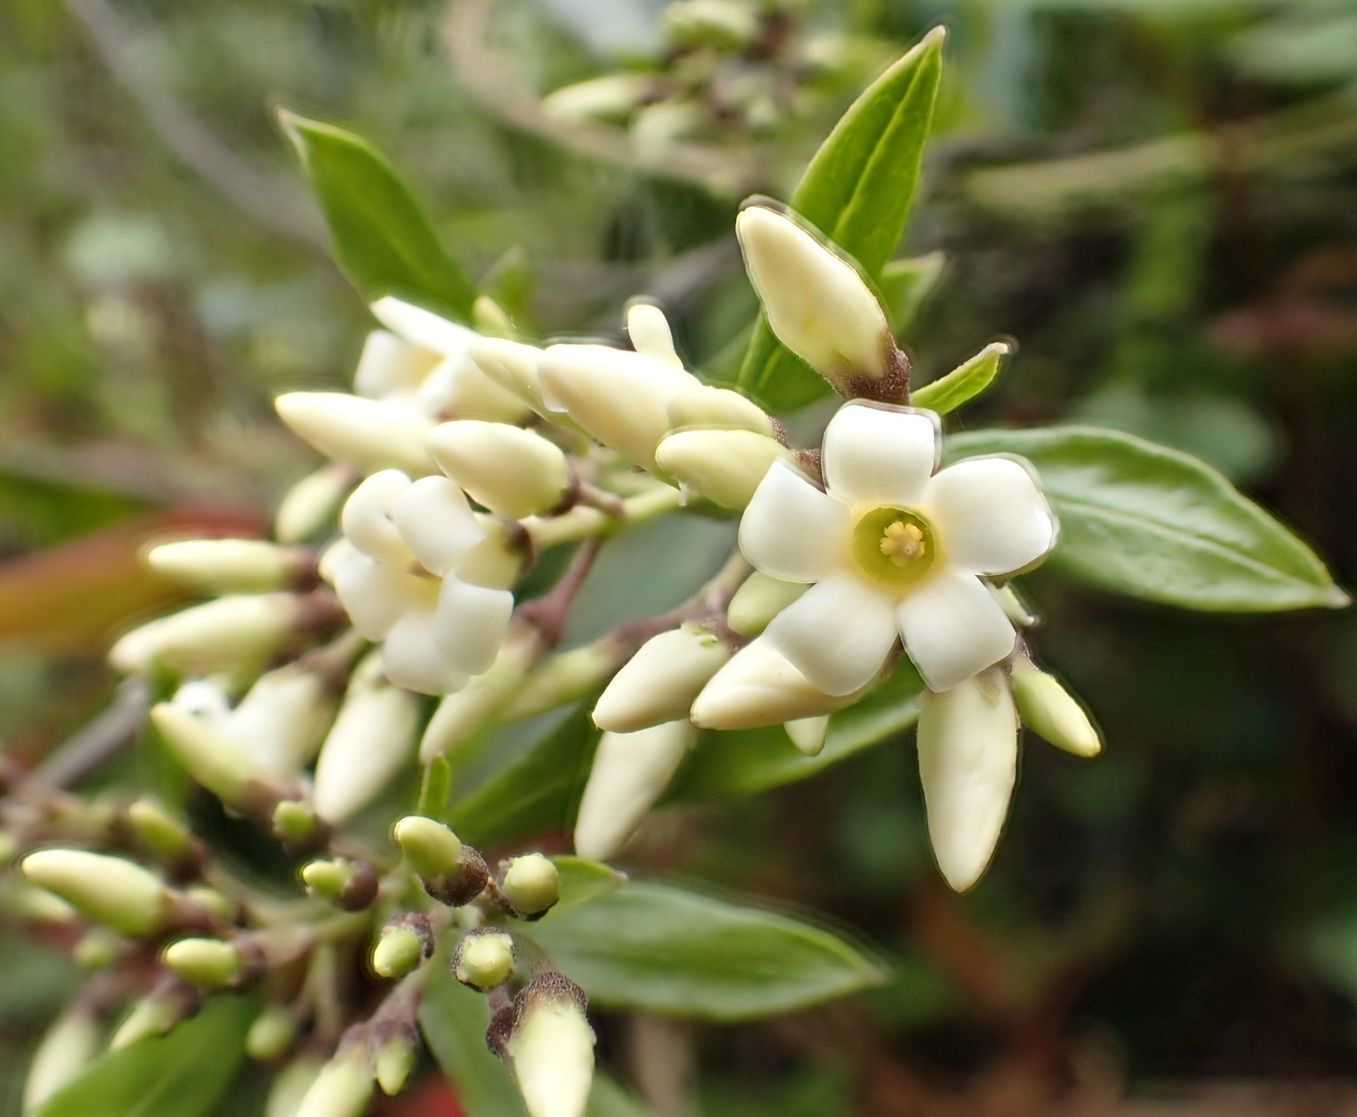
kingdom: Plantae
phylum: Tracheophyta
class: Magnoliopsida
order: Gentianales
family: Apocynaceae
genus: Parsonsia
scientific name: Parsonsia heterophylla
